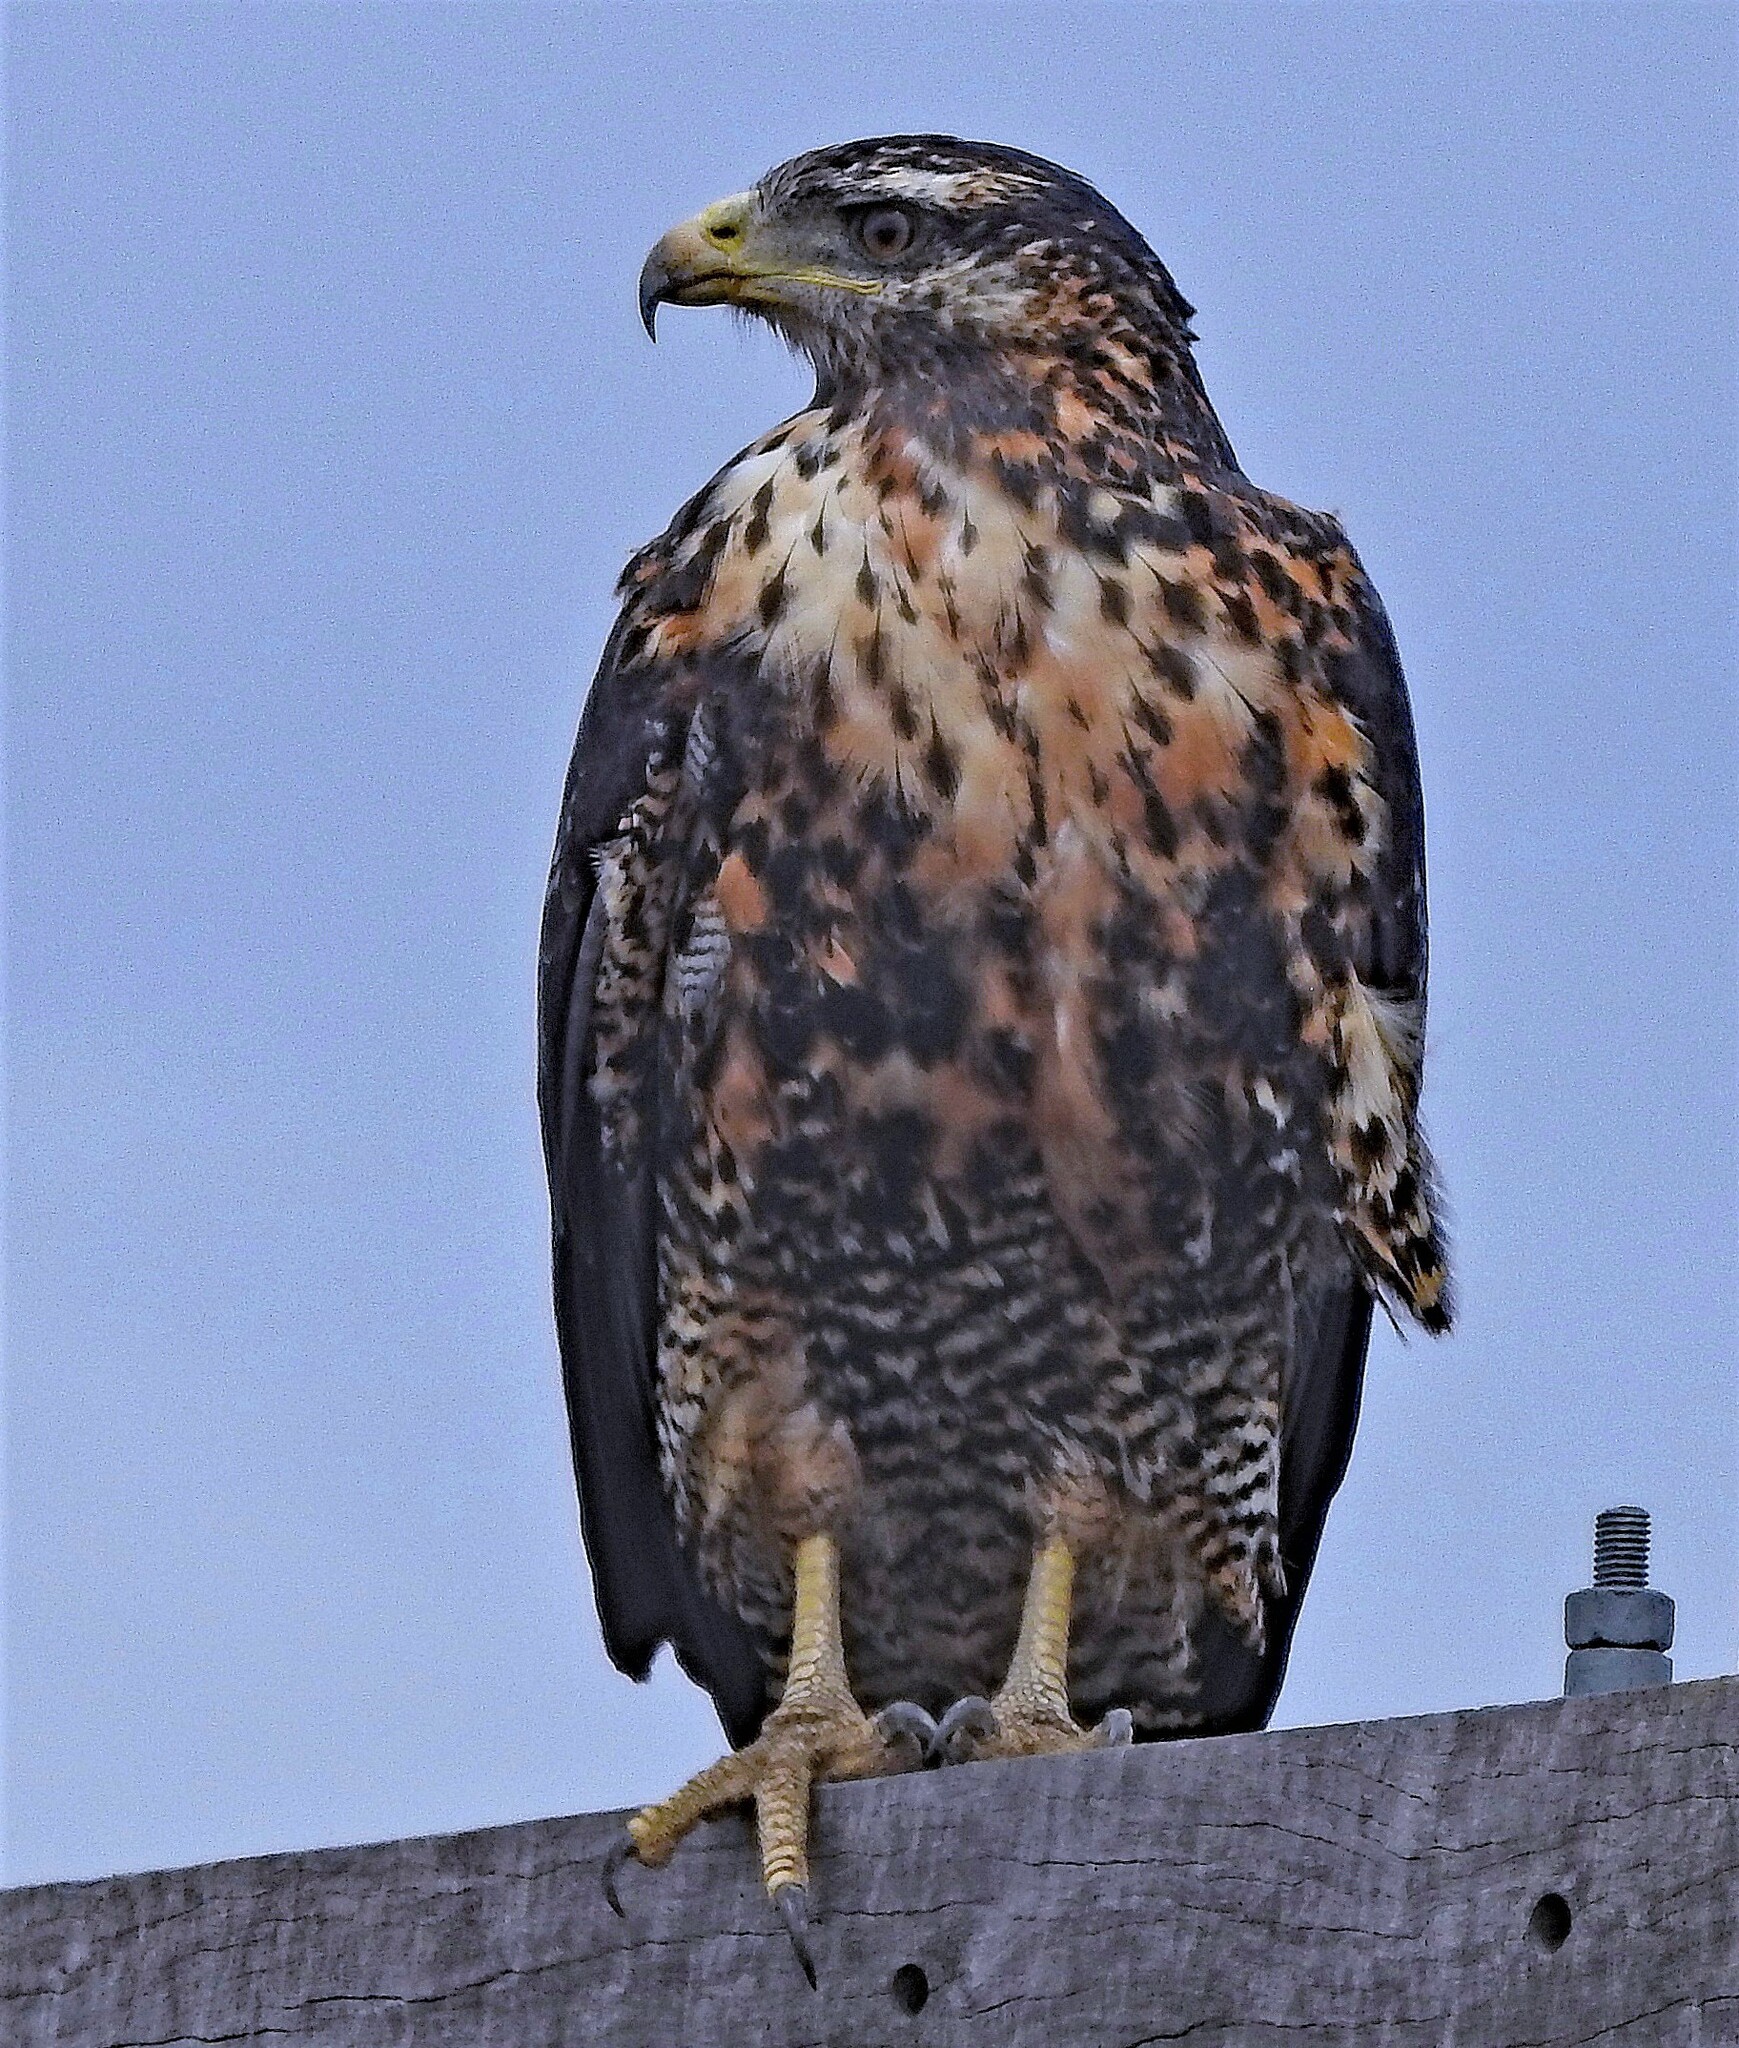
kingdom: Animalia
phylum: Chordata
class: Aves
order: Accipitriformes
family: Accipitridae
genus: Geranoaetus
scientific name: Geranoaetus melanoleucus
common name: Black-chested buzzard-eagle
